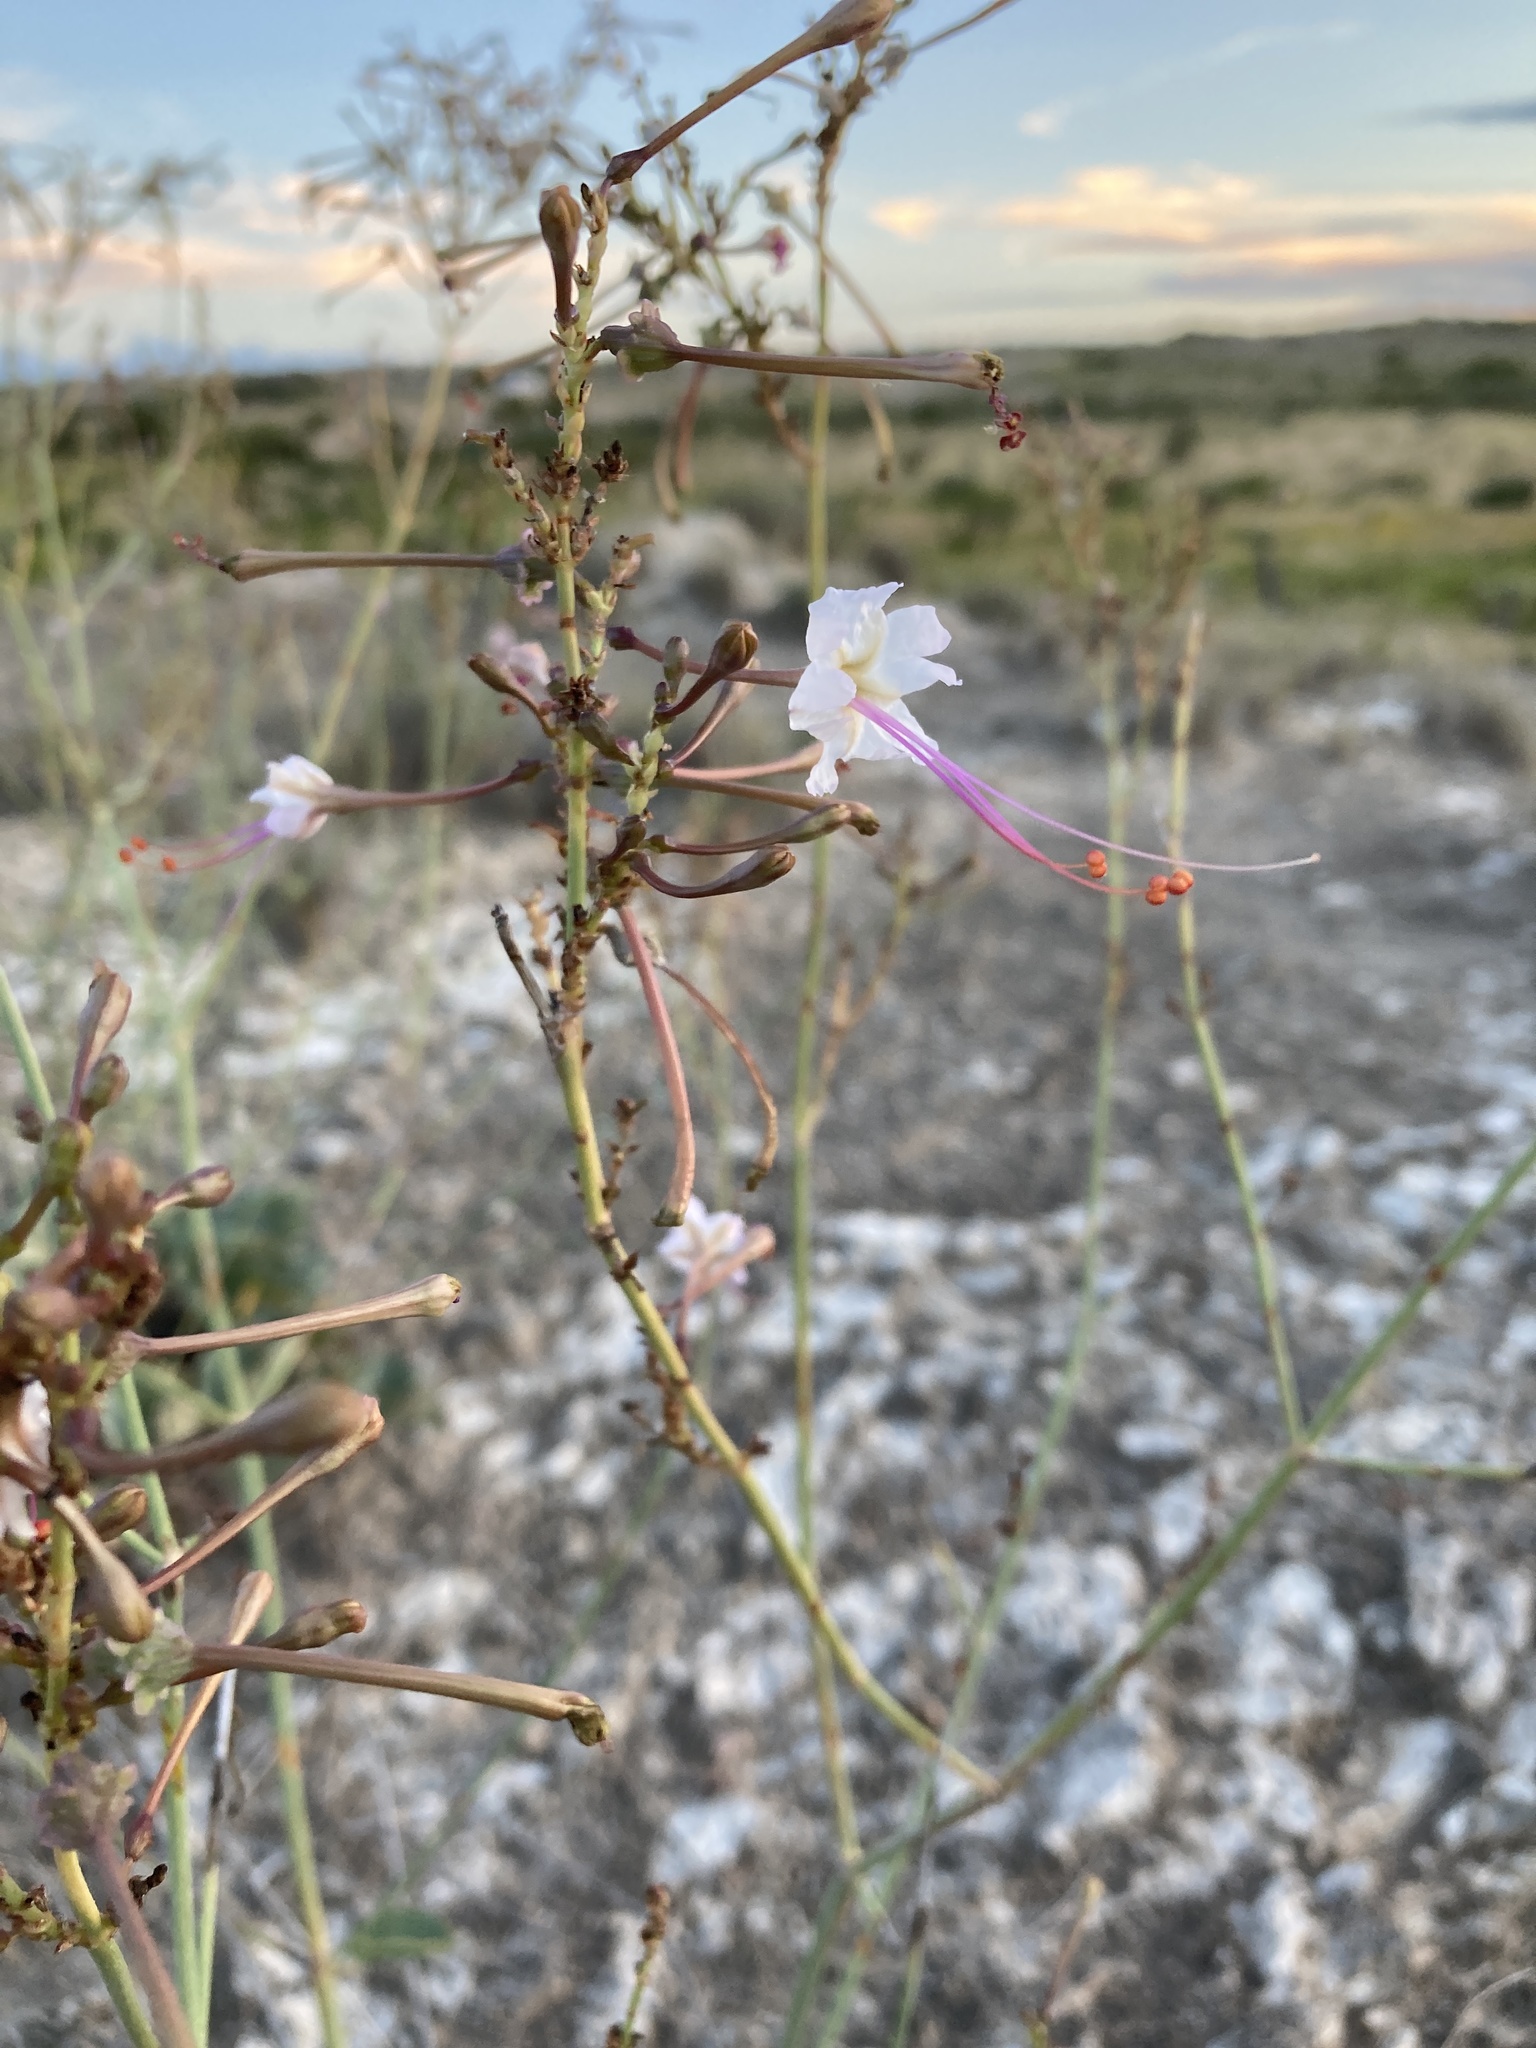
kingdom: Plantae
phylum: Tracheophyta
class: Magnoliopsida
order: Caryophyllales
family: Nyctaginaceae
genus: Anulocaulis
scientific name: Anulocaulis leiosolenus
